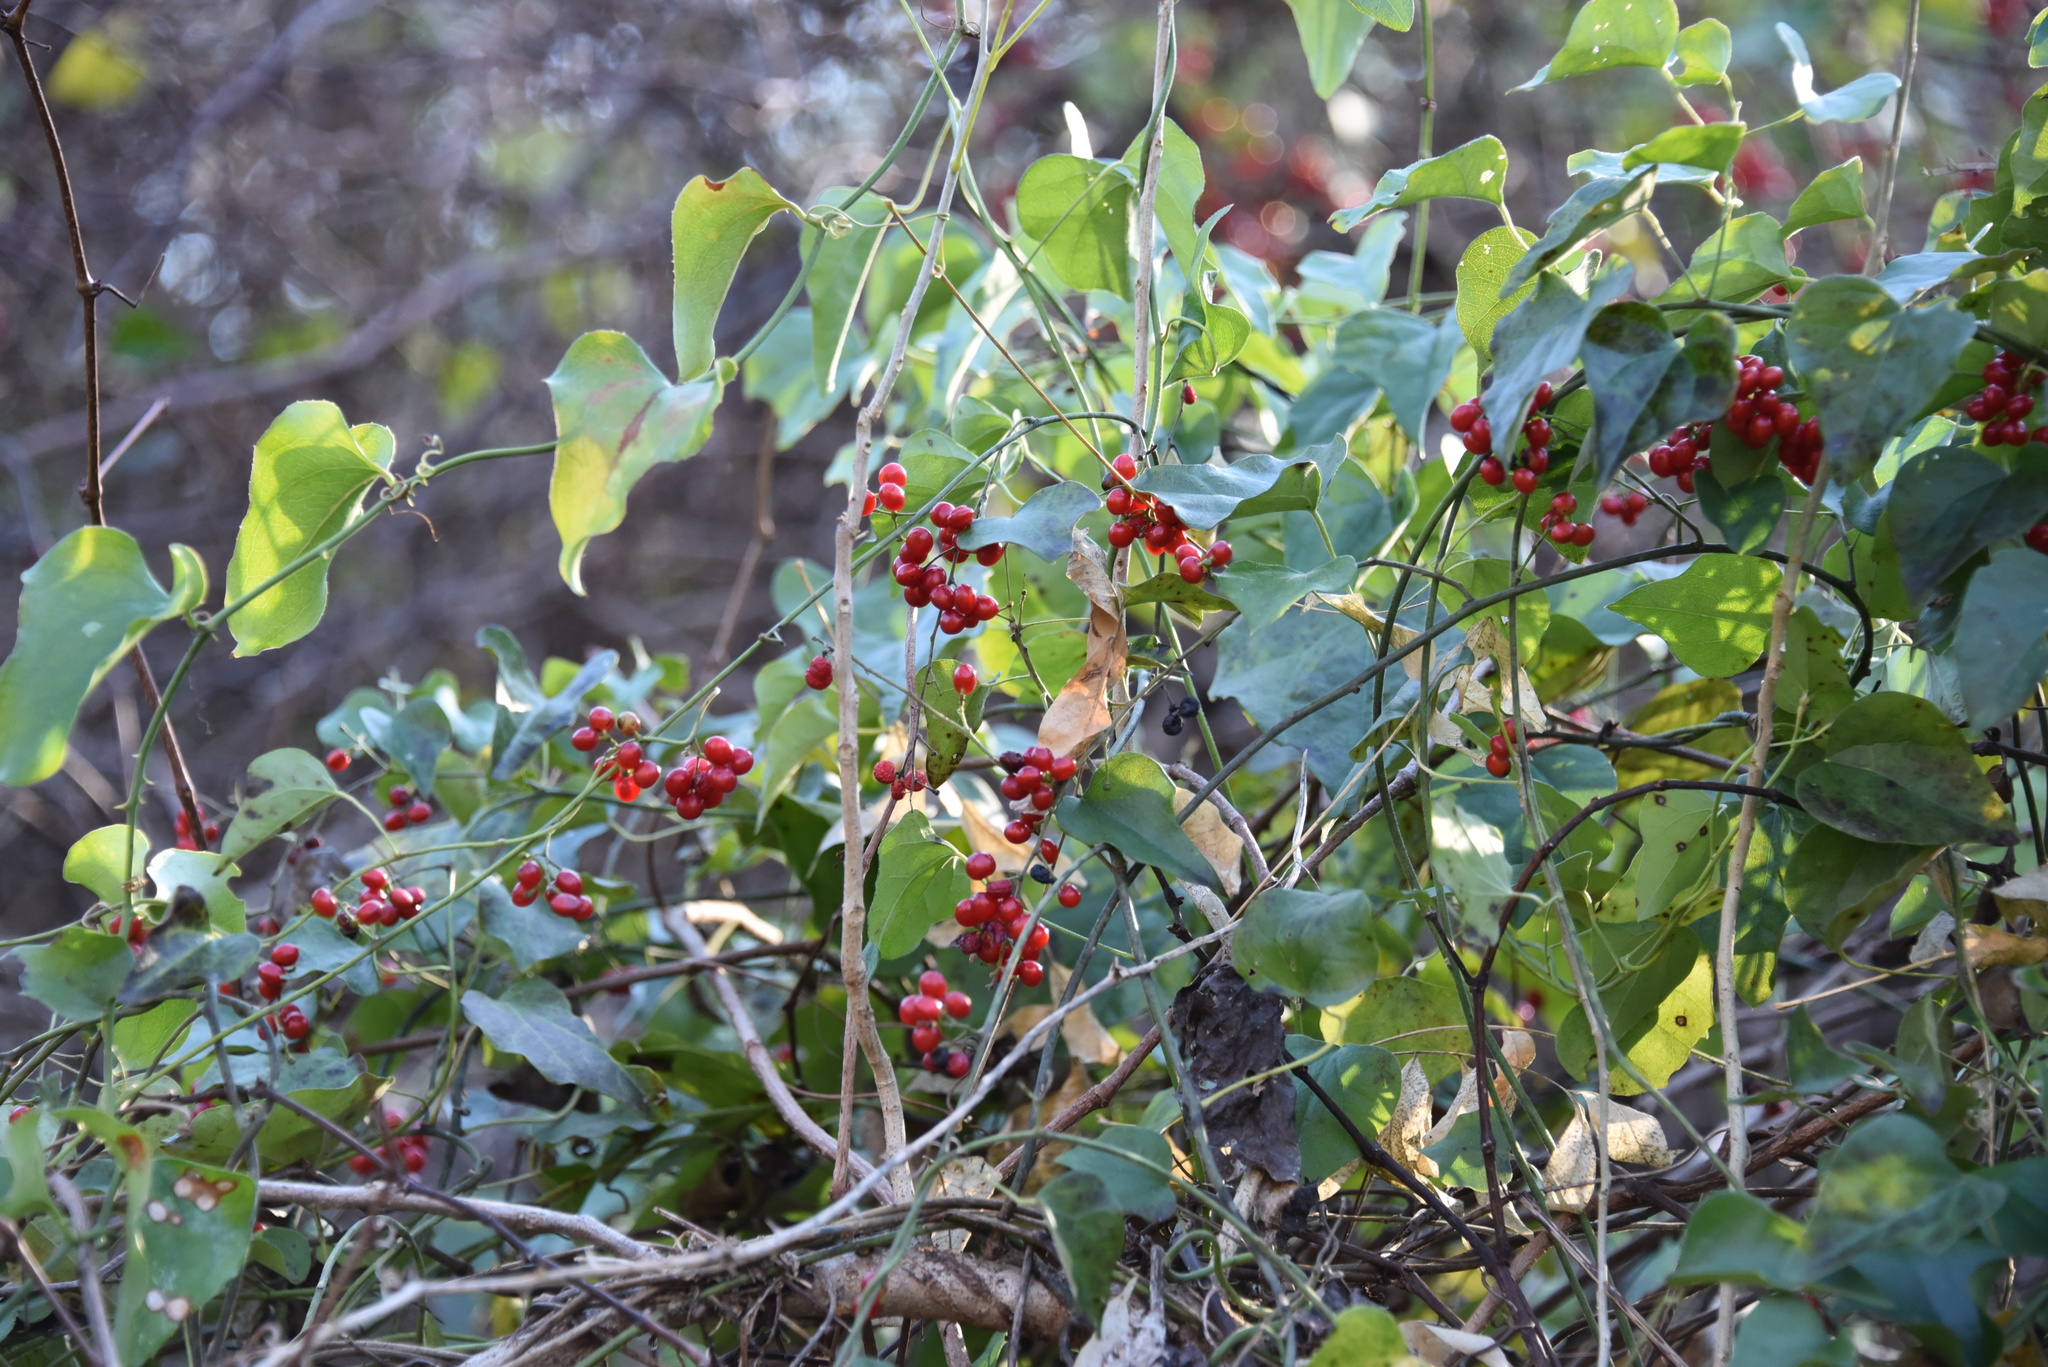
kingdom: Plantae
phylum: Tracheophyta
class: Magnoliopsida
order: Ranunculales
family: Menispermaceae
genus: Cocculus
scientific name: Cocculus carolinus
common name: Carolina moonseed
